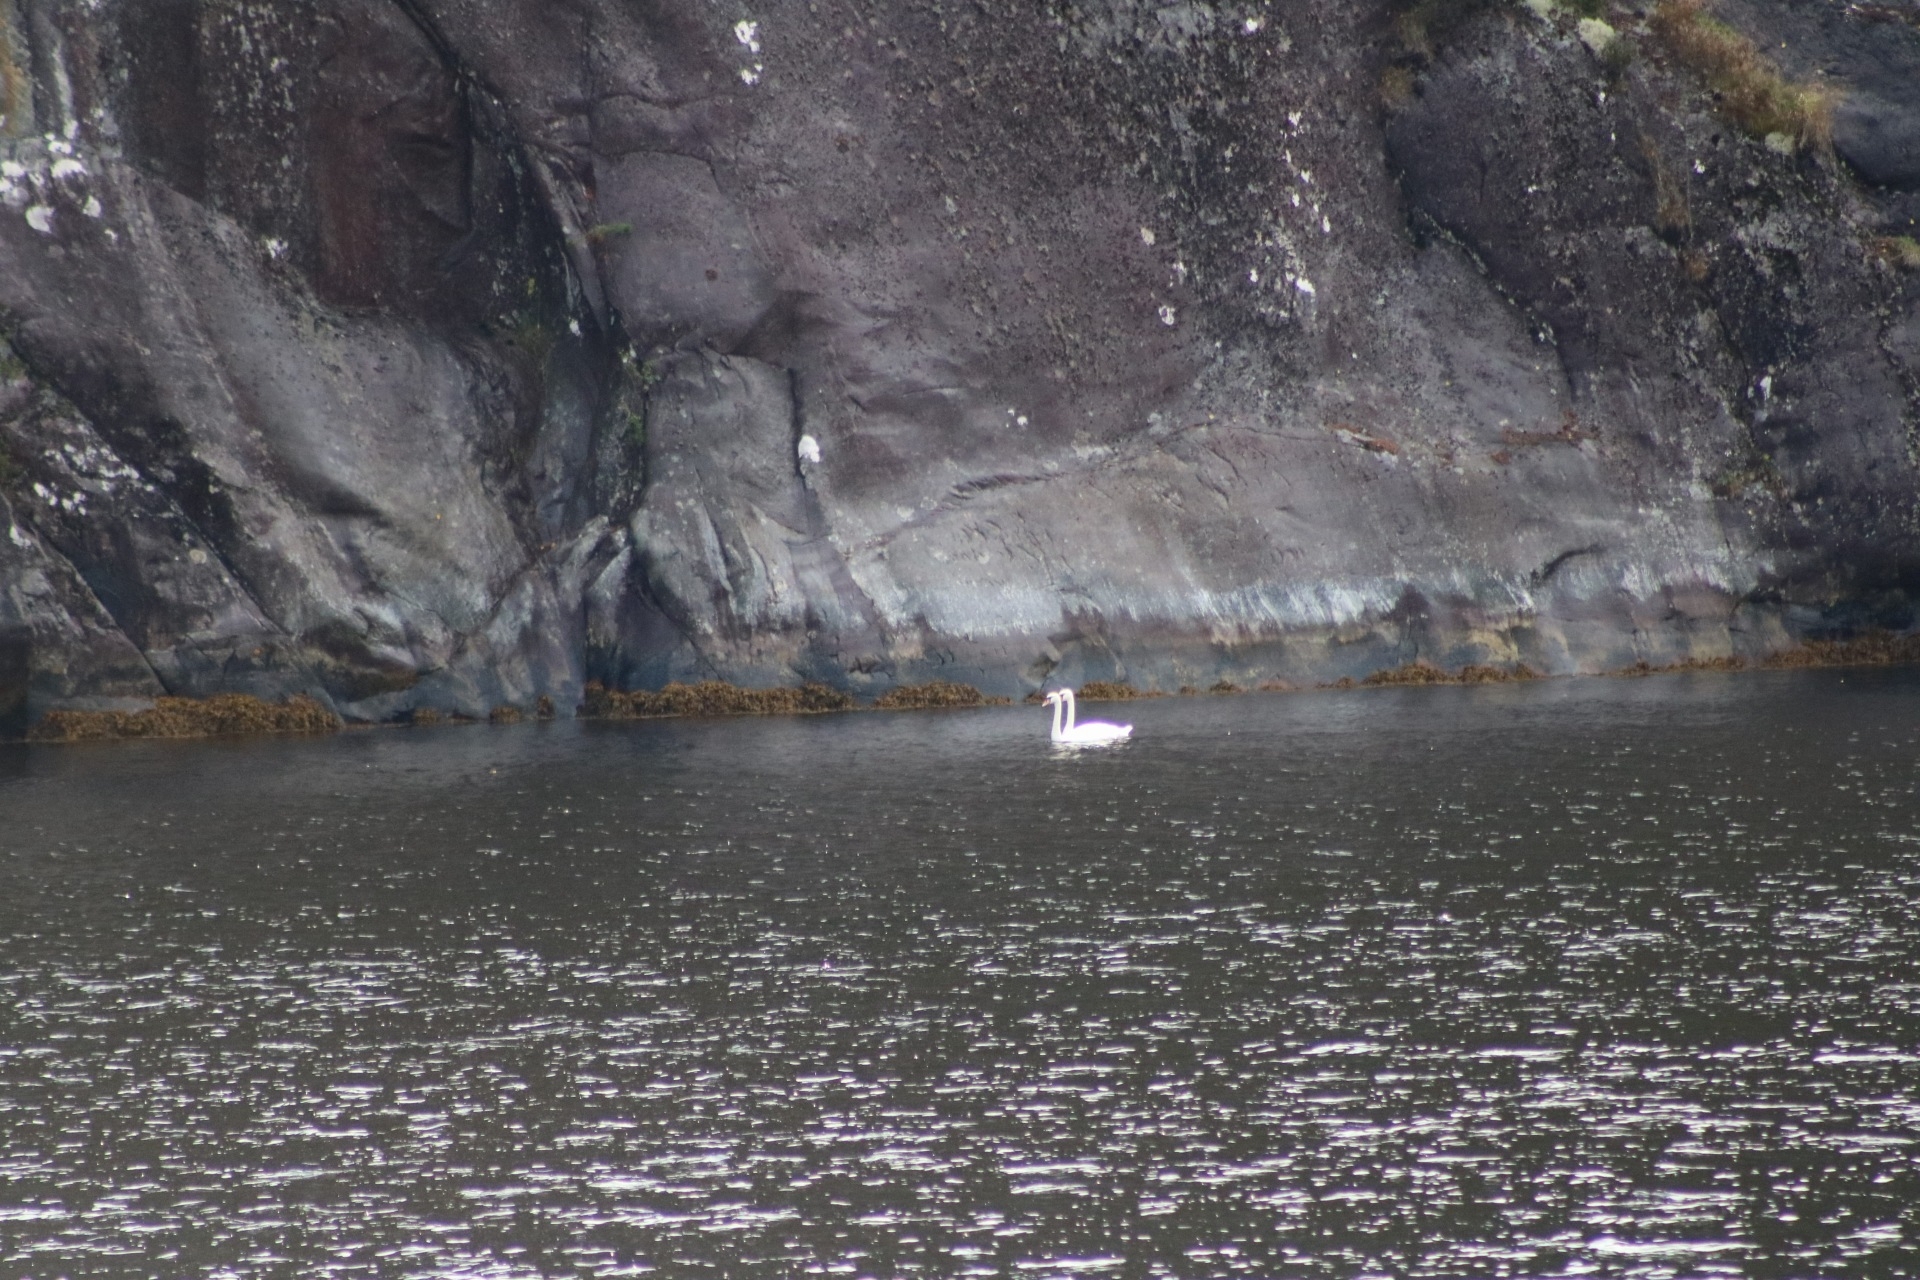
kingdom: Animalia
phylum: Chordata
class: Aves
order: Anseriformes
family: Anatidae
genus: Cygnus
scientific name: Cygnus olor
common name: Mute swan
